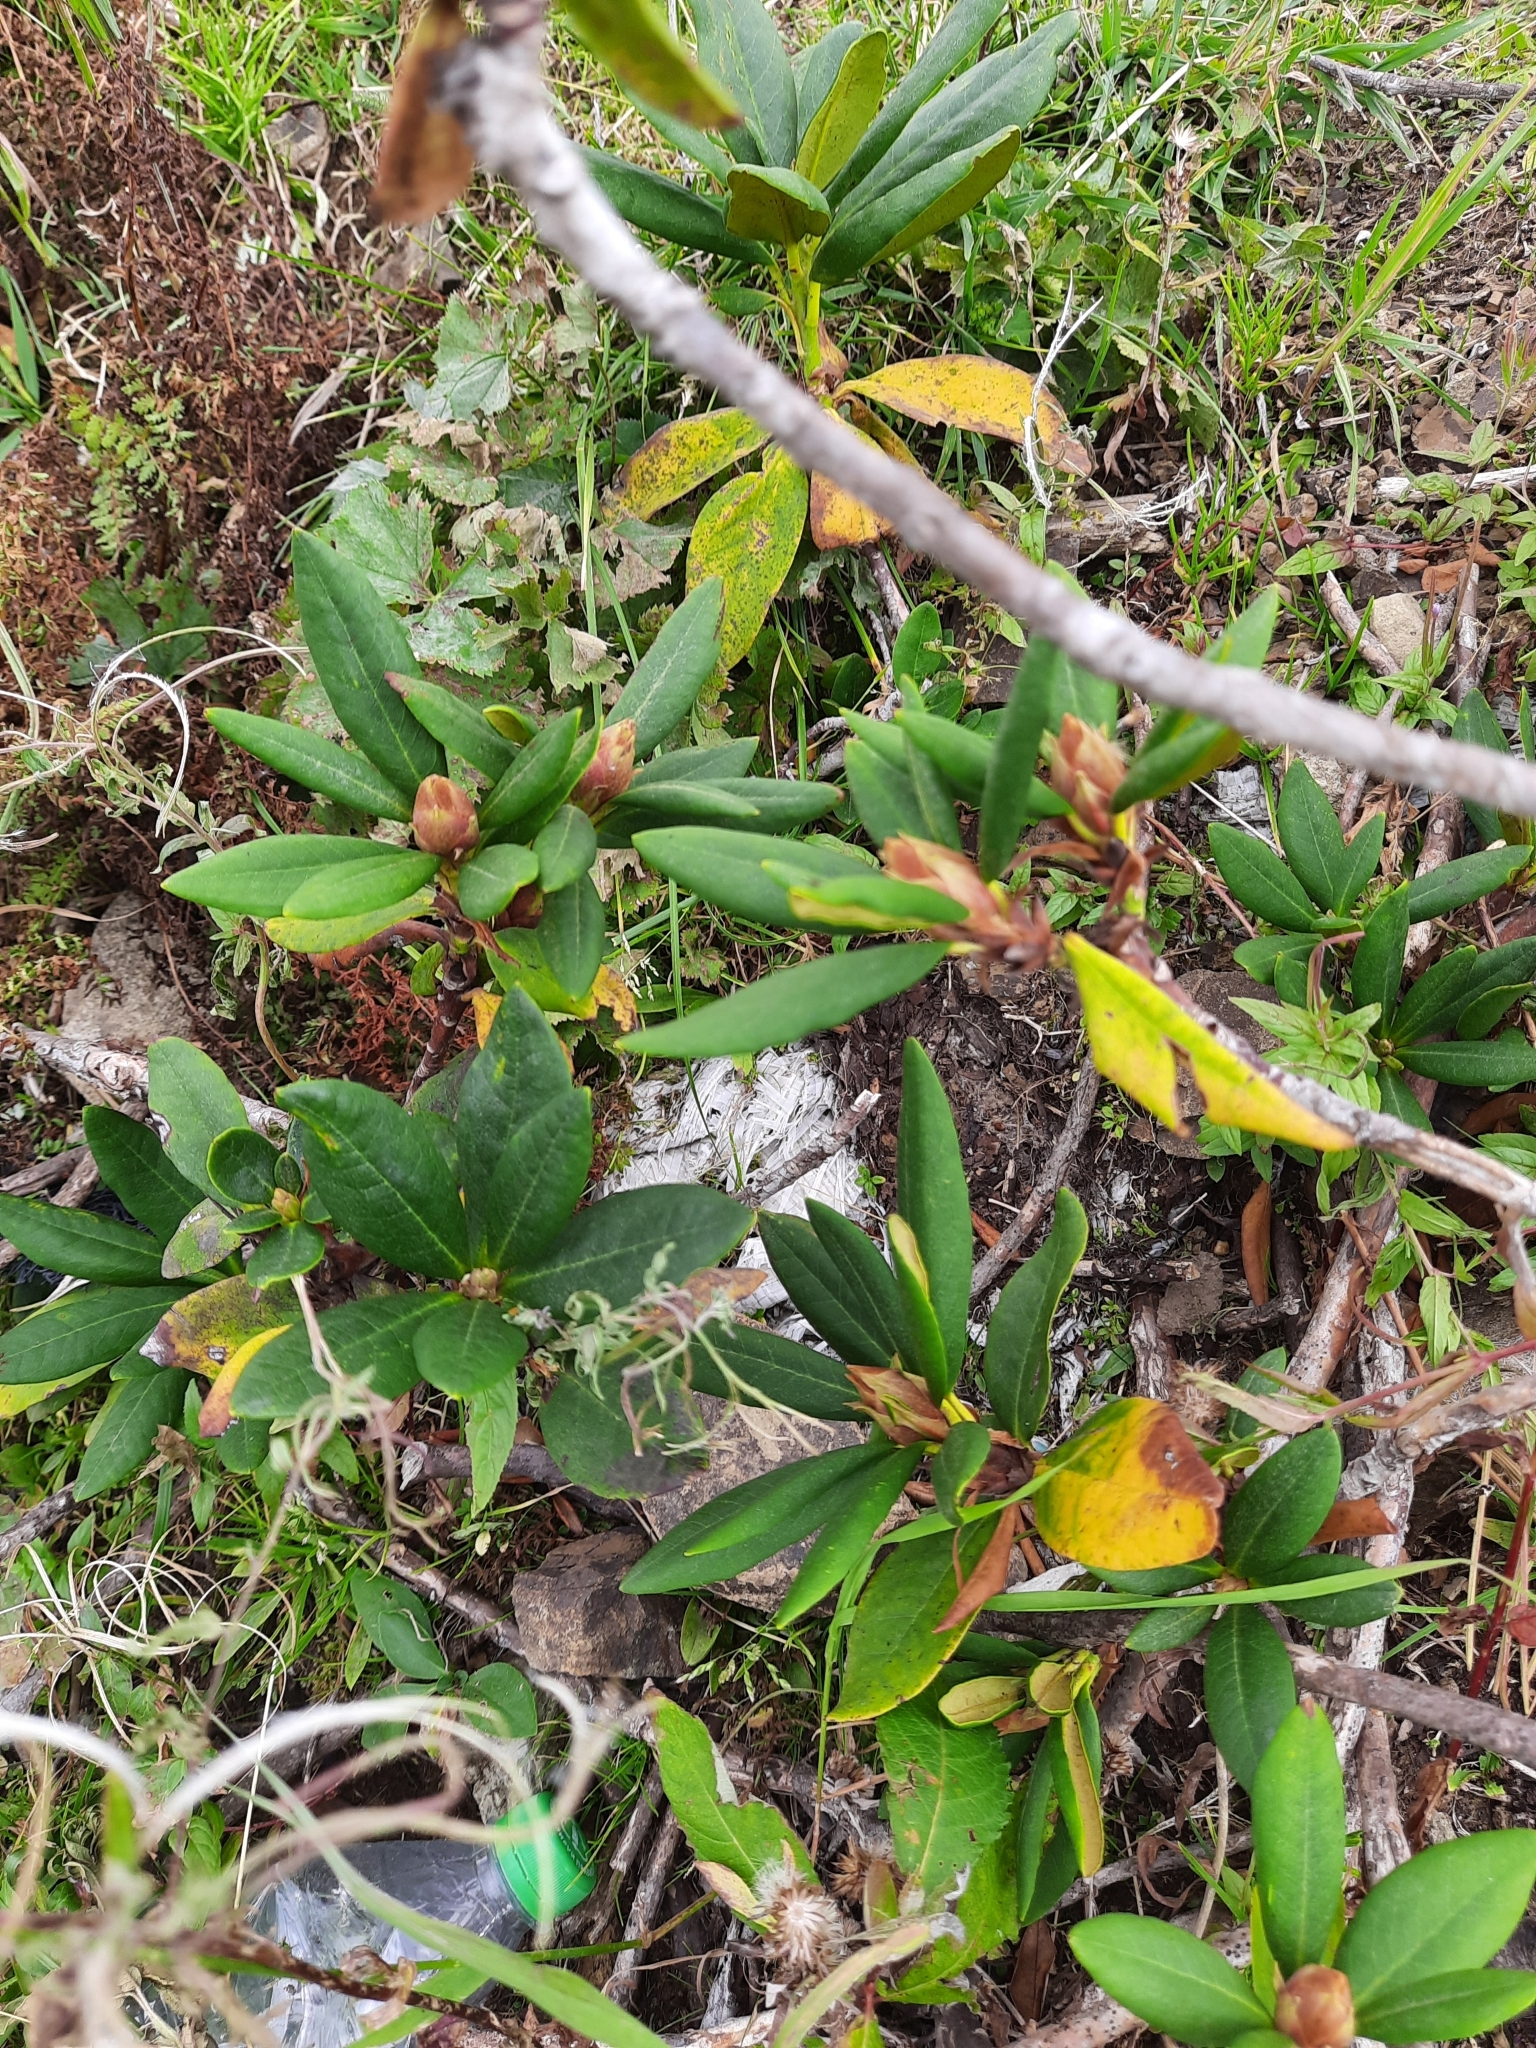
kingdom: Plantae
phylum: Tracheophyta
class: Magnoliopsida
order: Ericales
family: Ericaceae
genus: Rhododendron
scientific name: Rhododendron caucasicum
